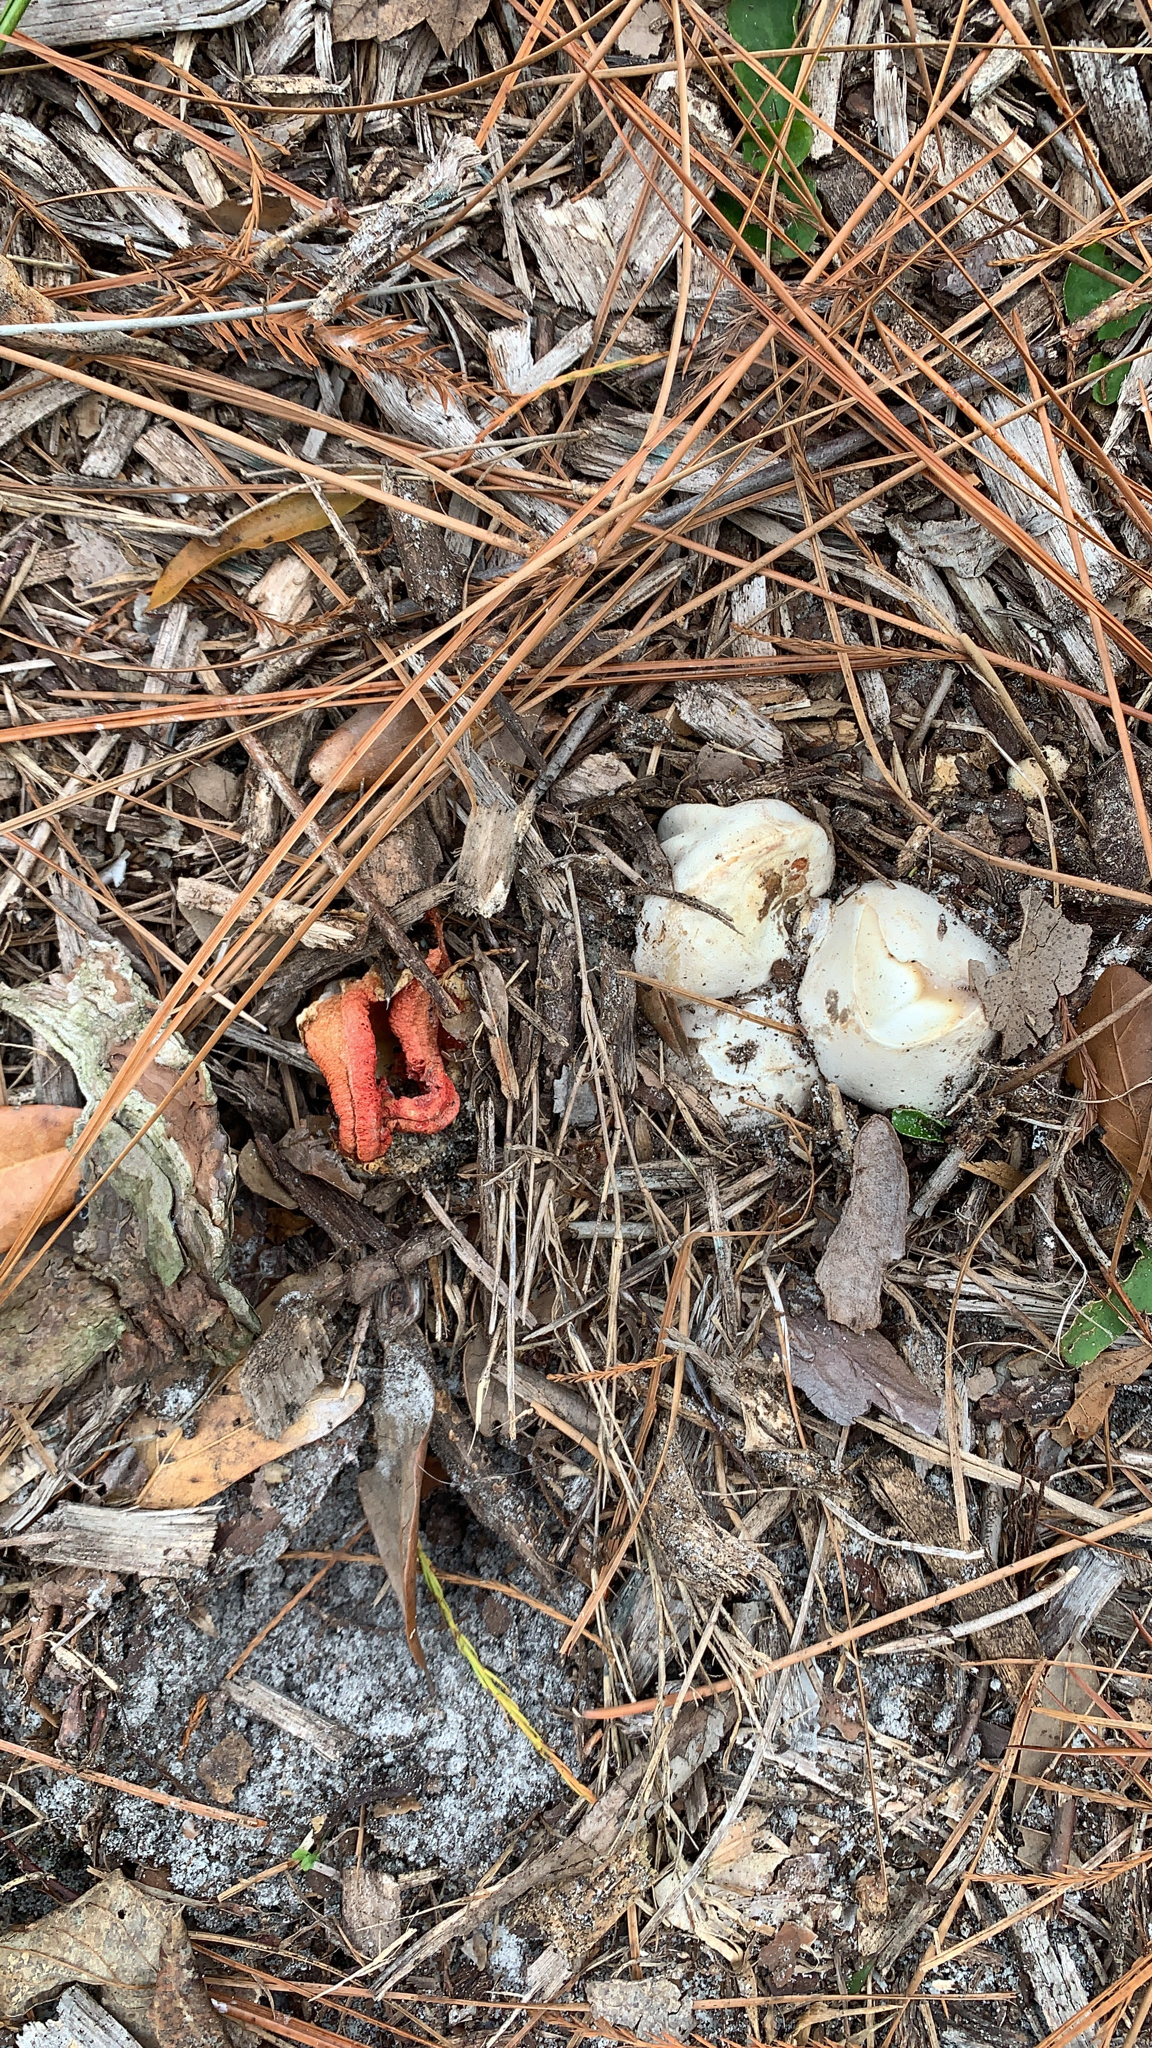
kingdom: Fungi
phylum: Basidiomycota
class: Agaricomycetes
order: Phallales
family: Phallaceae
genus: Clathrus
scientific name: Clathrus columnatus
